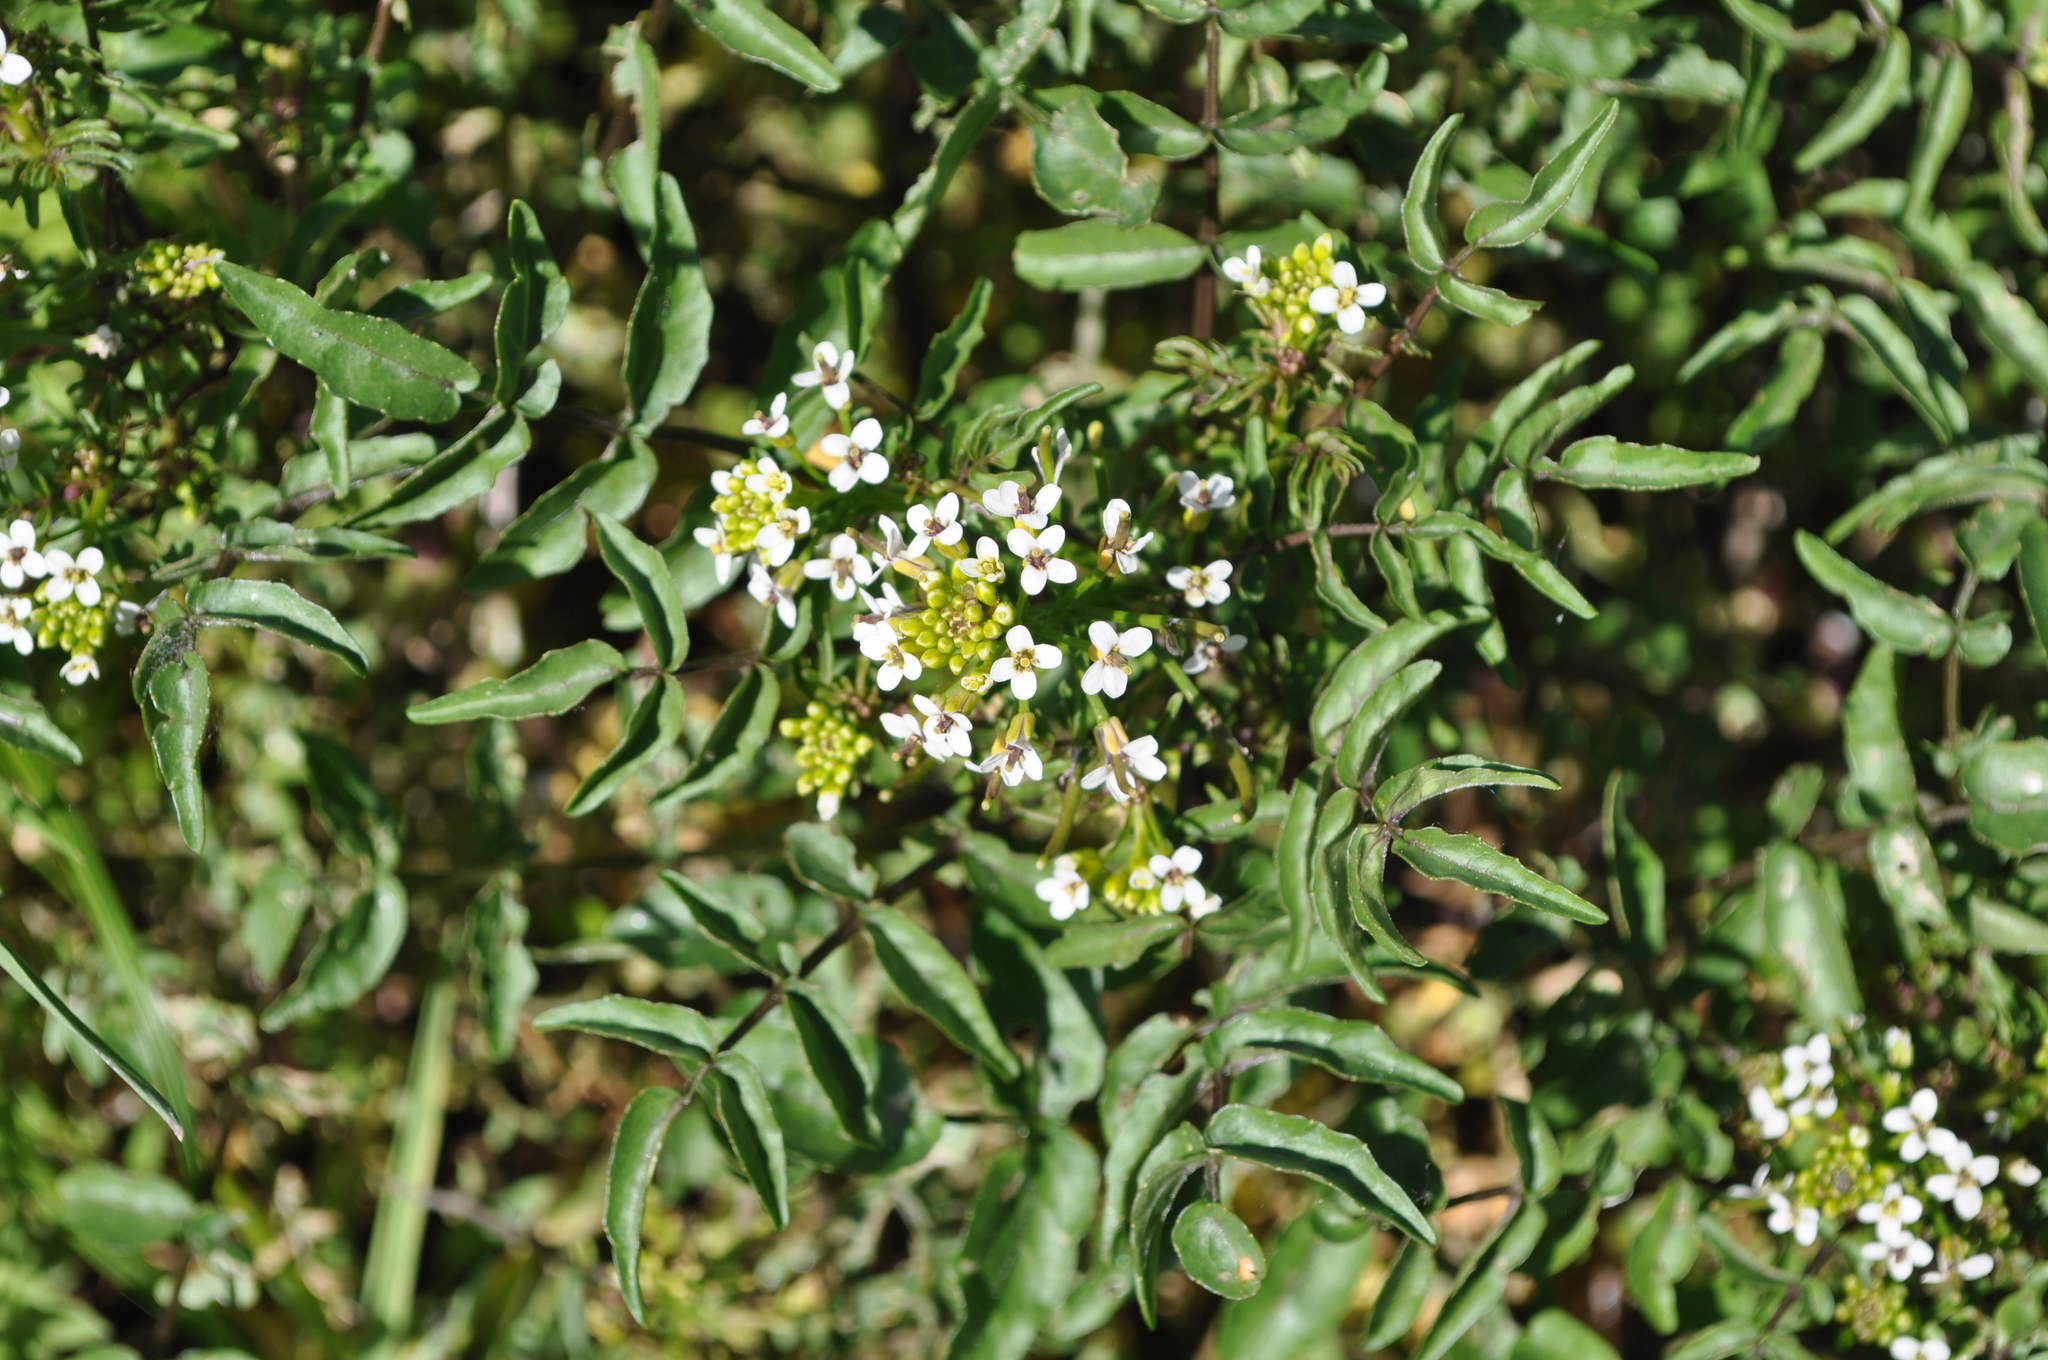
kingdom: Plantae
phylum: Tracheophyta
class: Magnoliopsida
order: Brassicales
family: Brassicaceae
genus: Nasturtium
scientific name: Nasturtium officinale
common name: Watercress
